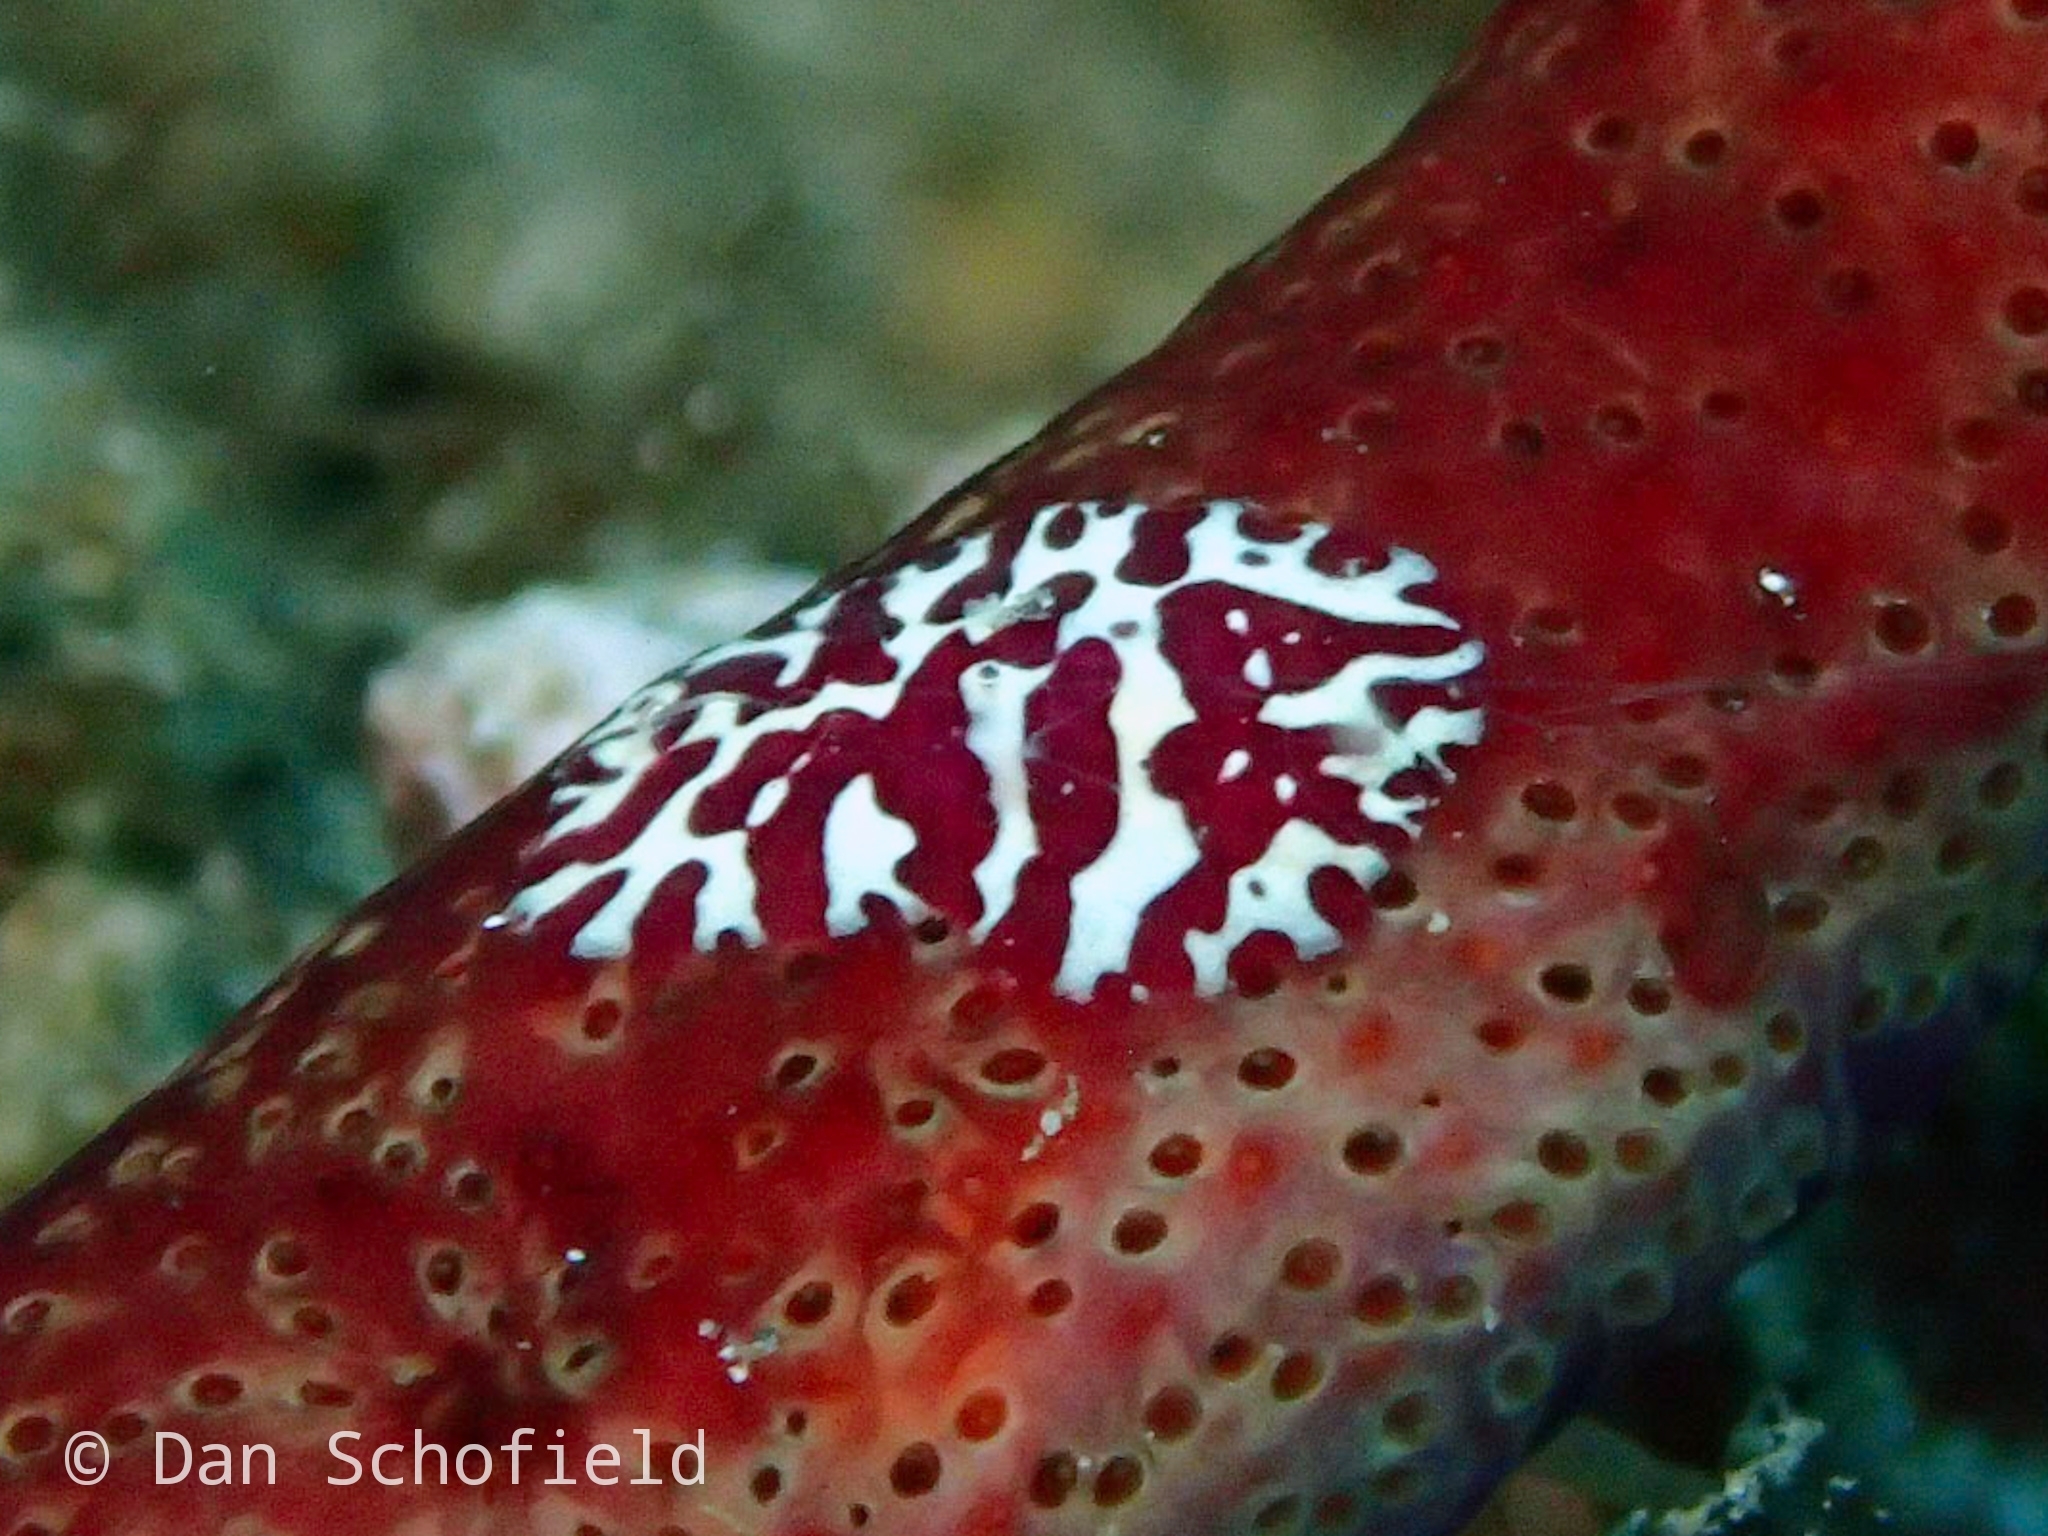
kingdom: Animalia
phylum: Ctenophora
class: Tentaculata
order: Platyctenida
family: Coeloplanidae
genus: Coeloplana
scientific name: Coeloplana astericola
